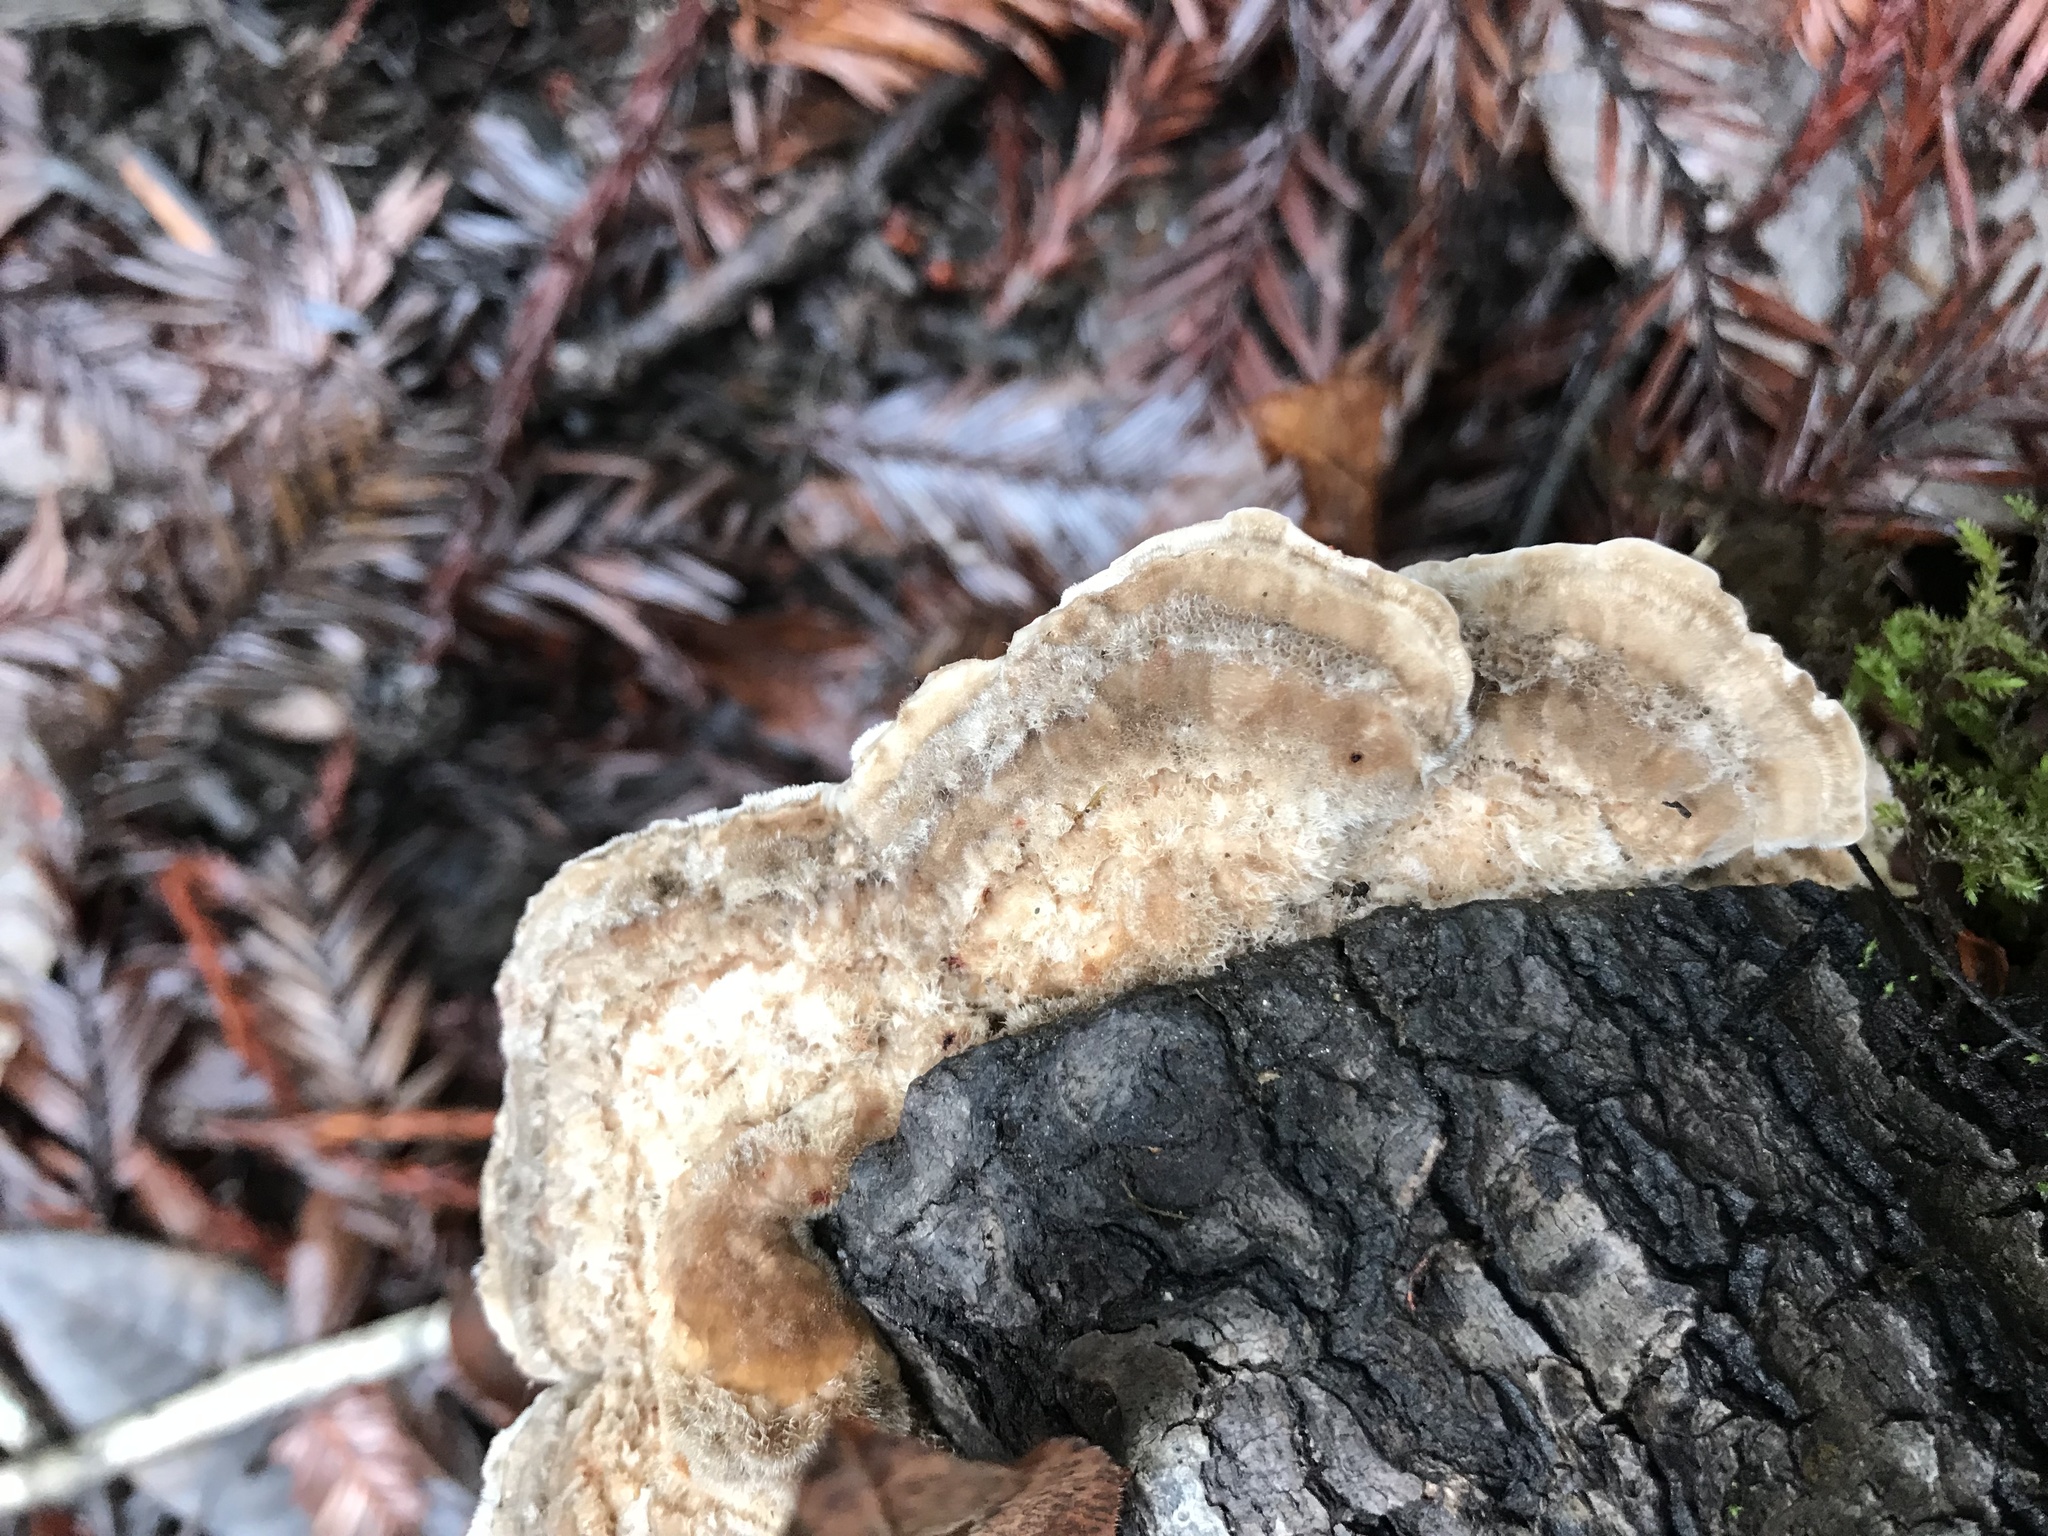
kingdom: Fungi
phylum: Basidiomycota
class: Agaricomycetes
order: Polyporales
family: Polyporaceae
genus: Lenzites
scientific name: Lenzites betulinus
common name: Birch mazegill
